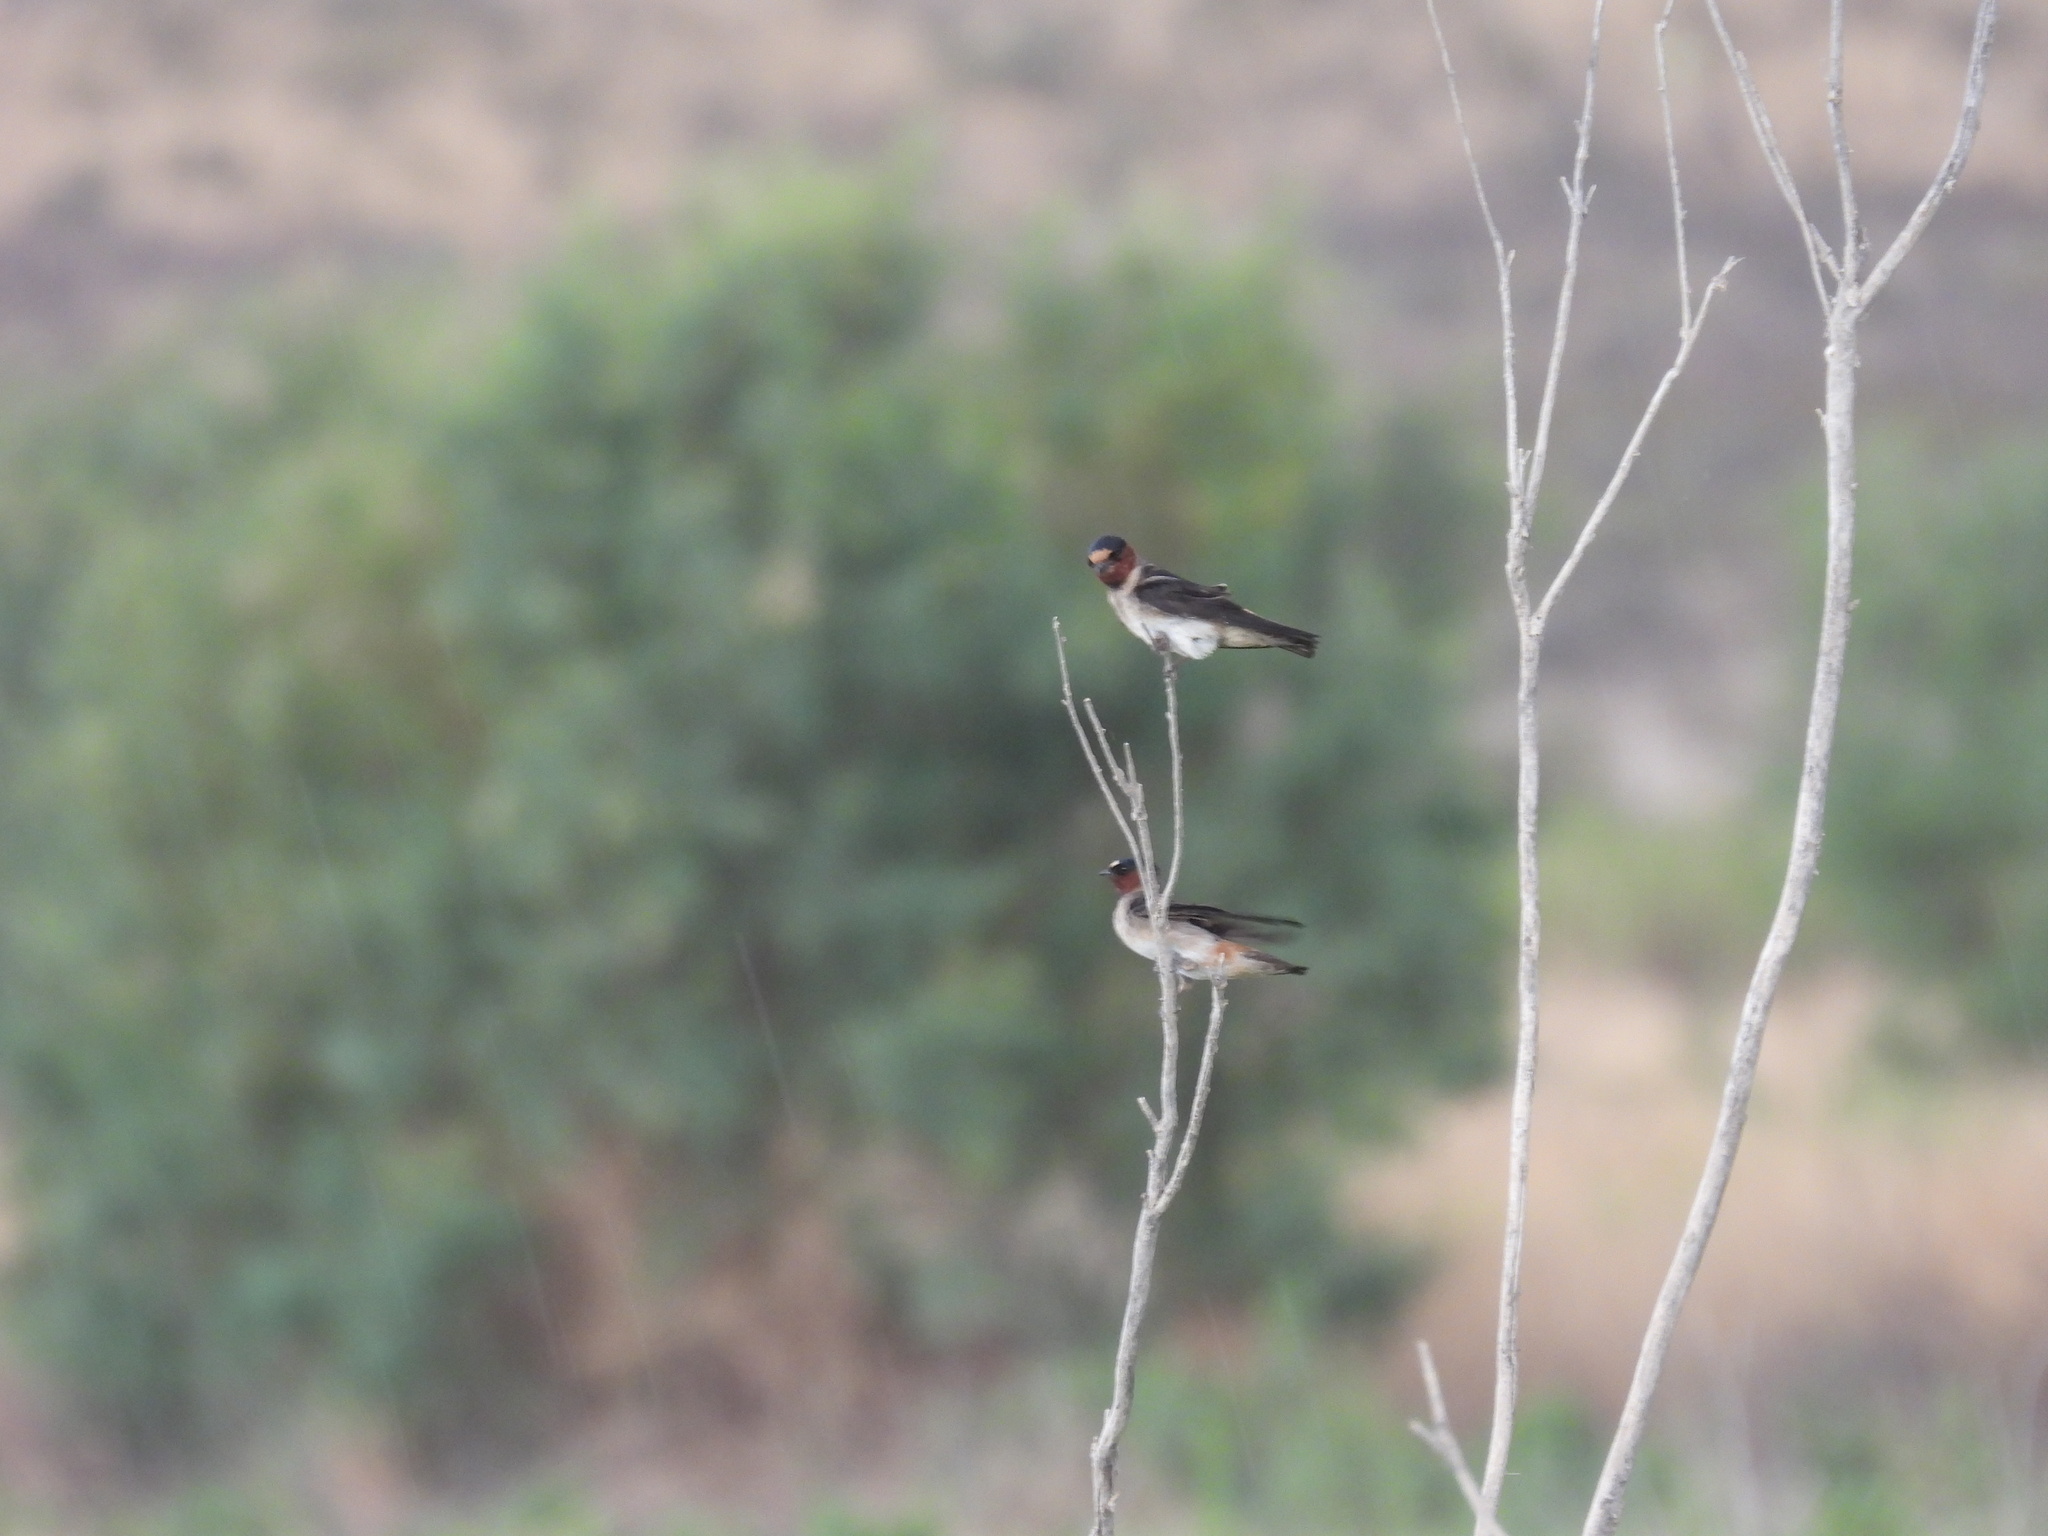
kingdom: Animalia
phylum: Chordata
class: Aves
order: Passeriformes
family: Hirundinidae
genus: Petrochelidon
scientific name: Petrochelidon pyrrhonota
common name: American cliff swallow
